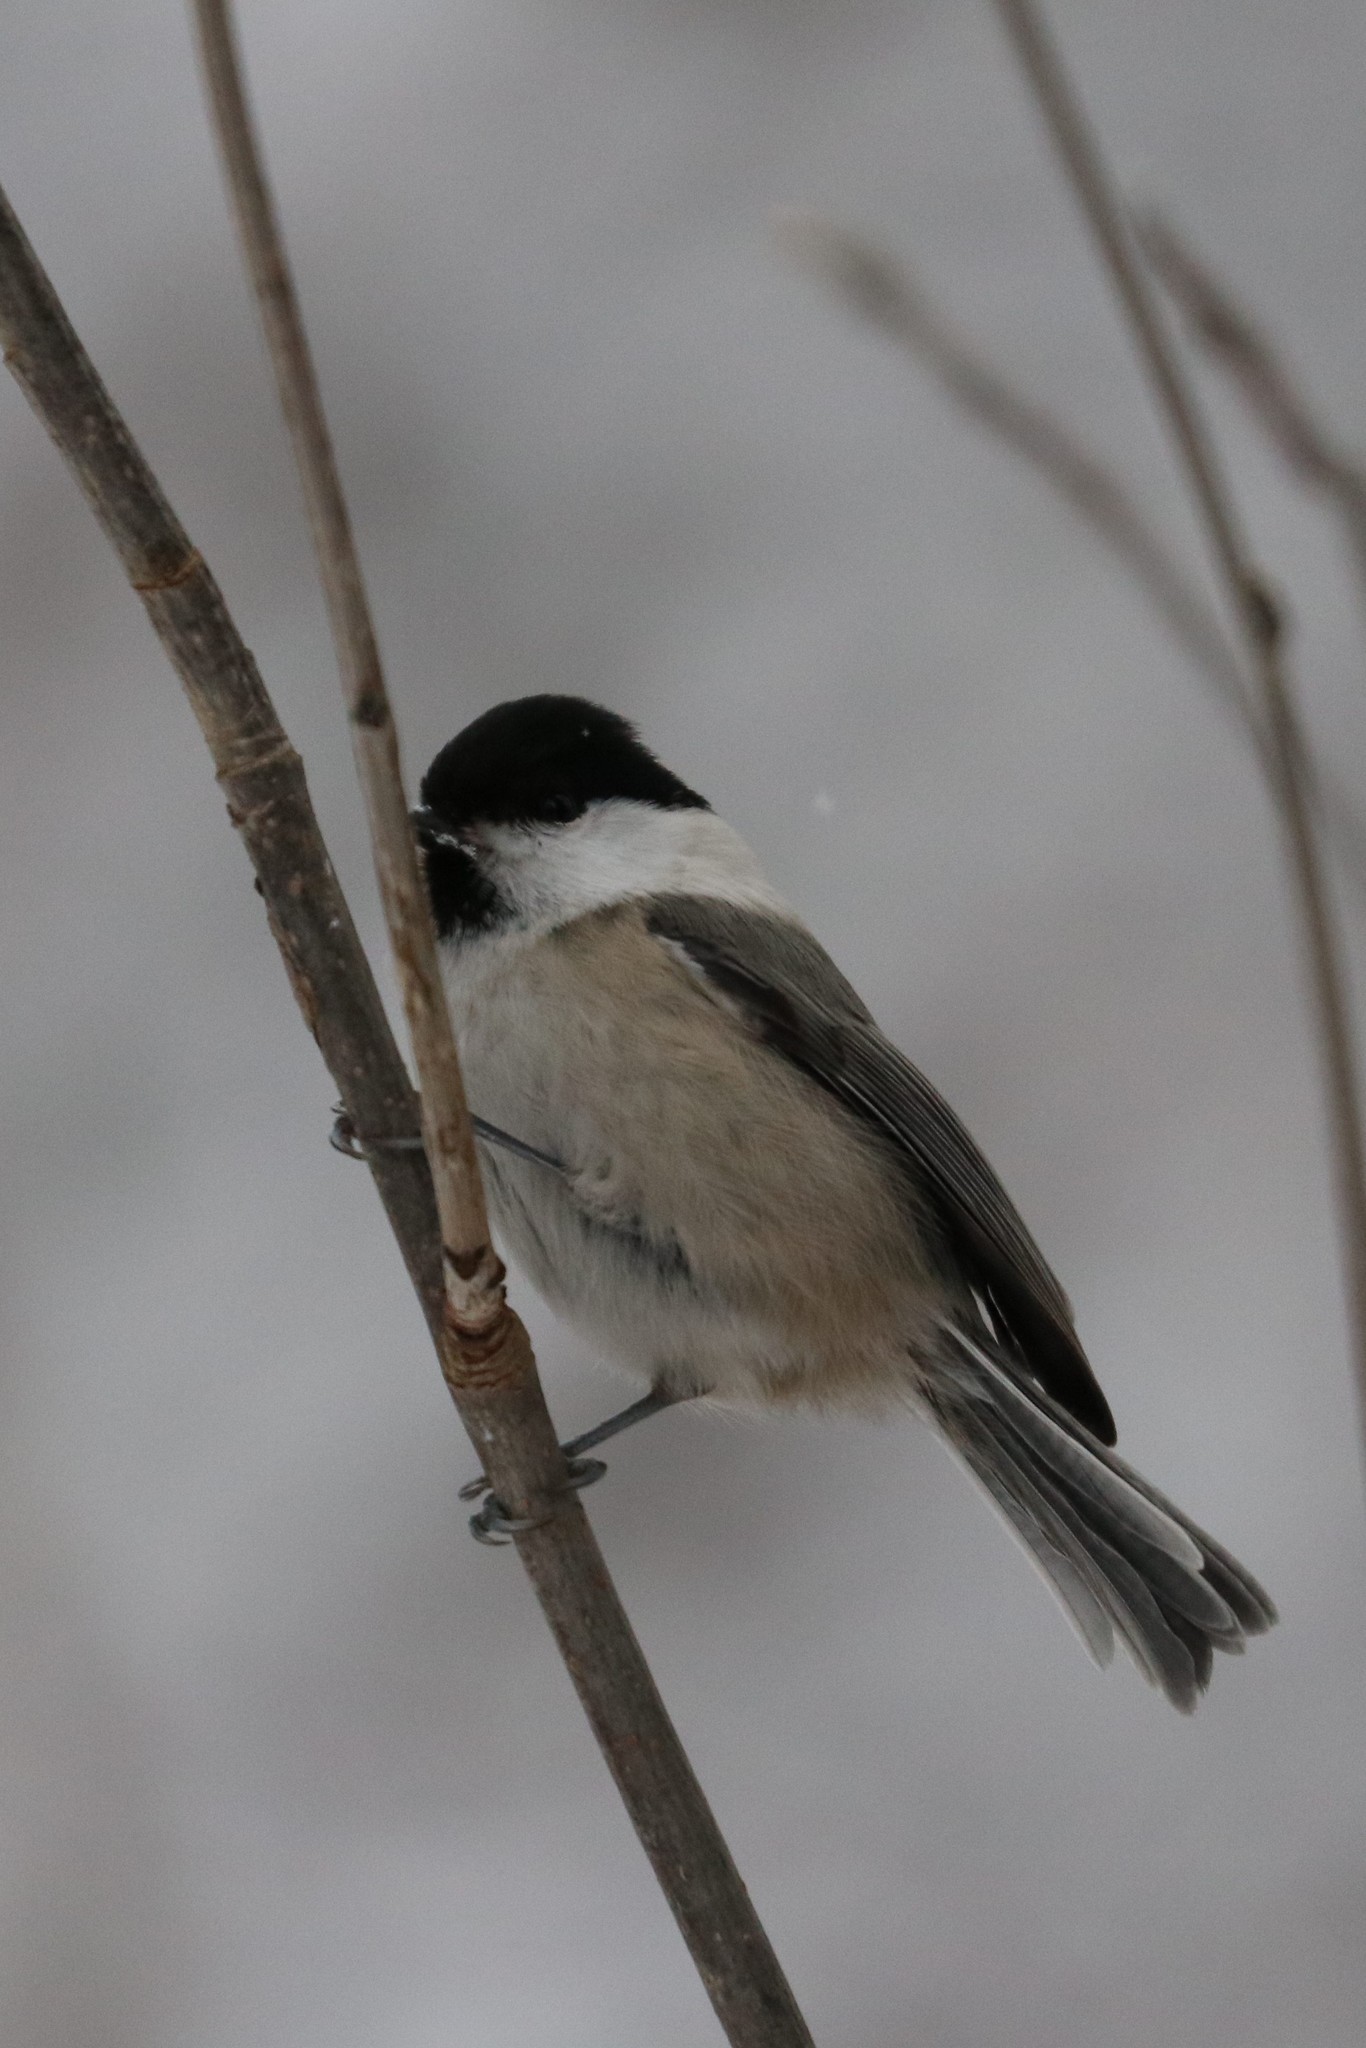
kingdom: Animalia
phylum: Chordata
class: Aves
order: Passeriformes
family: Paridae
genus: Poecile
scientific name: Poecile montanus
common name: Willow tit
